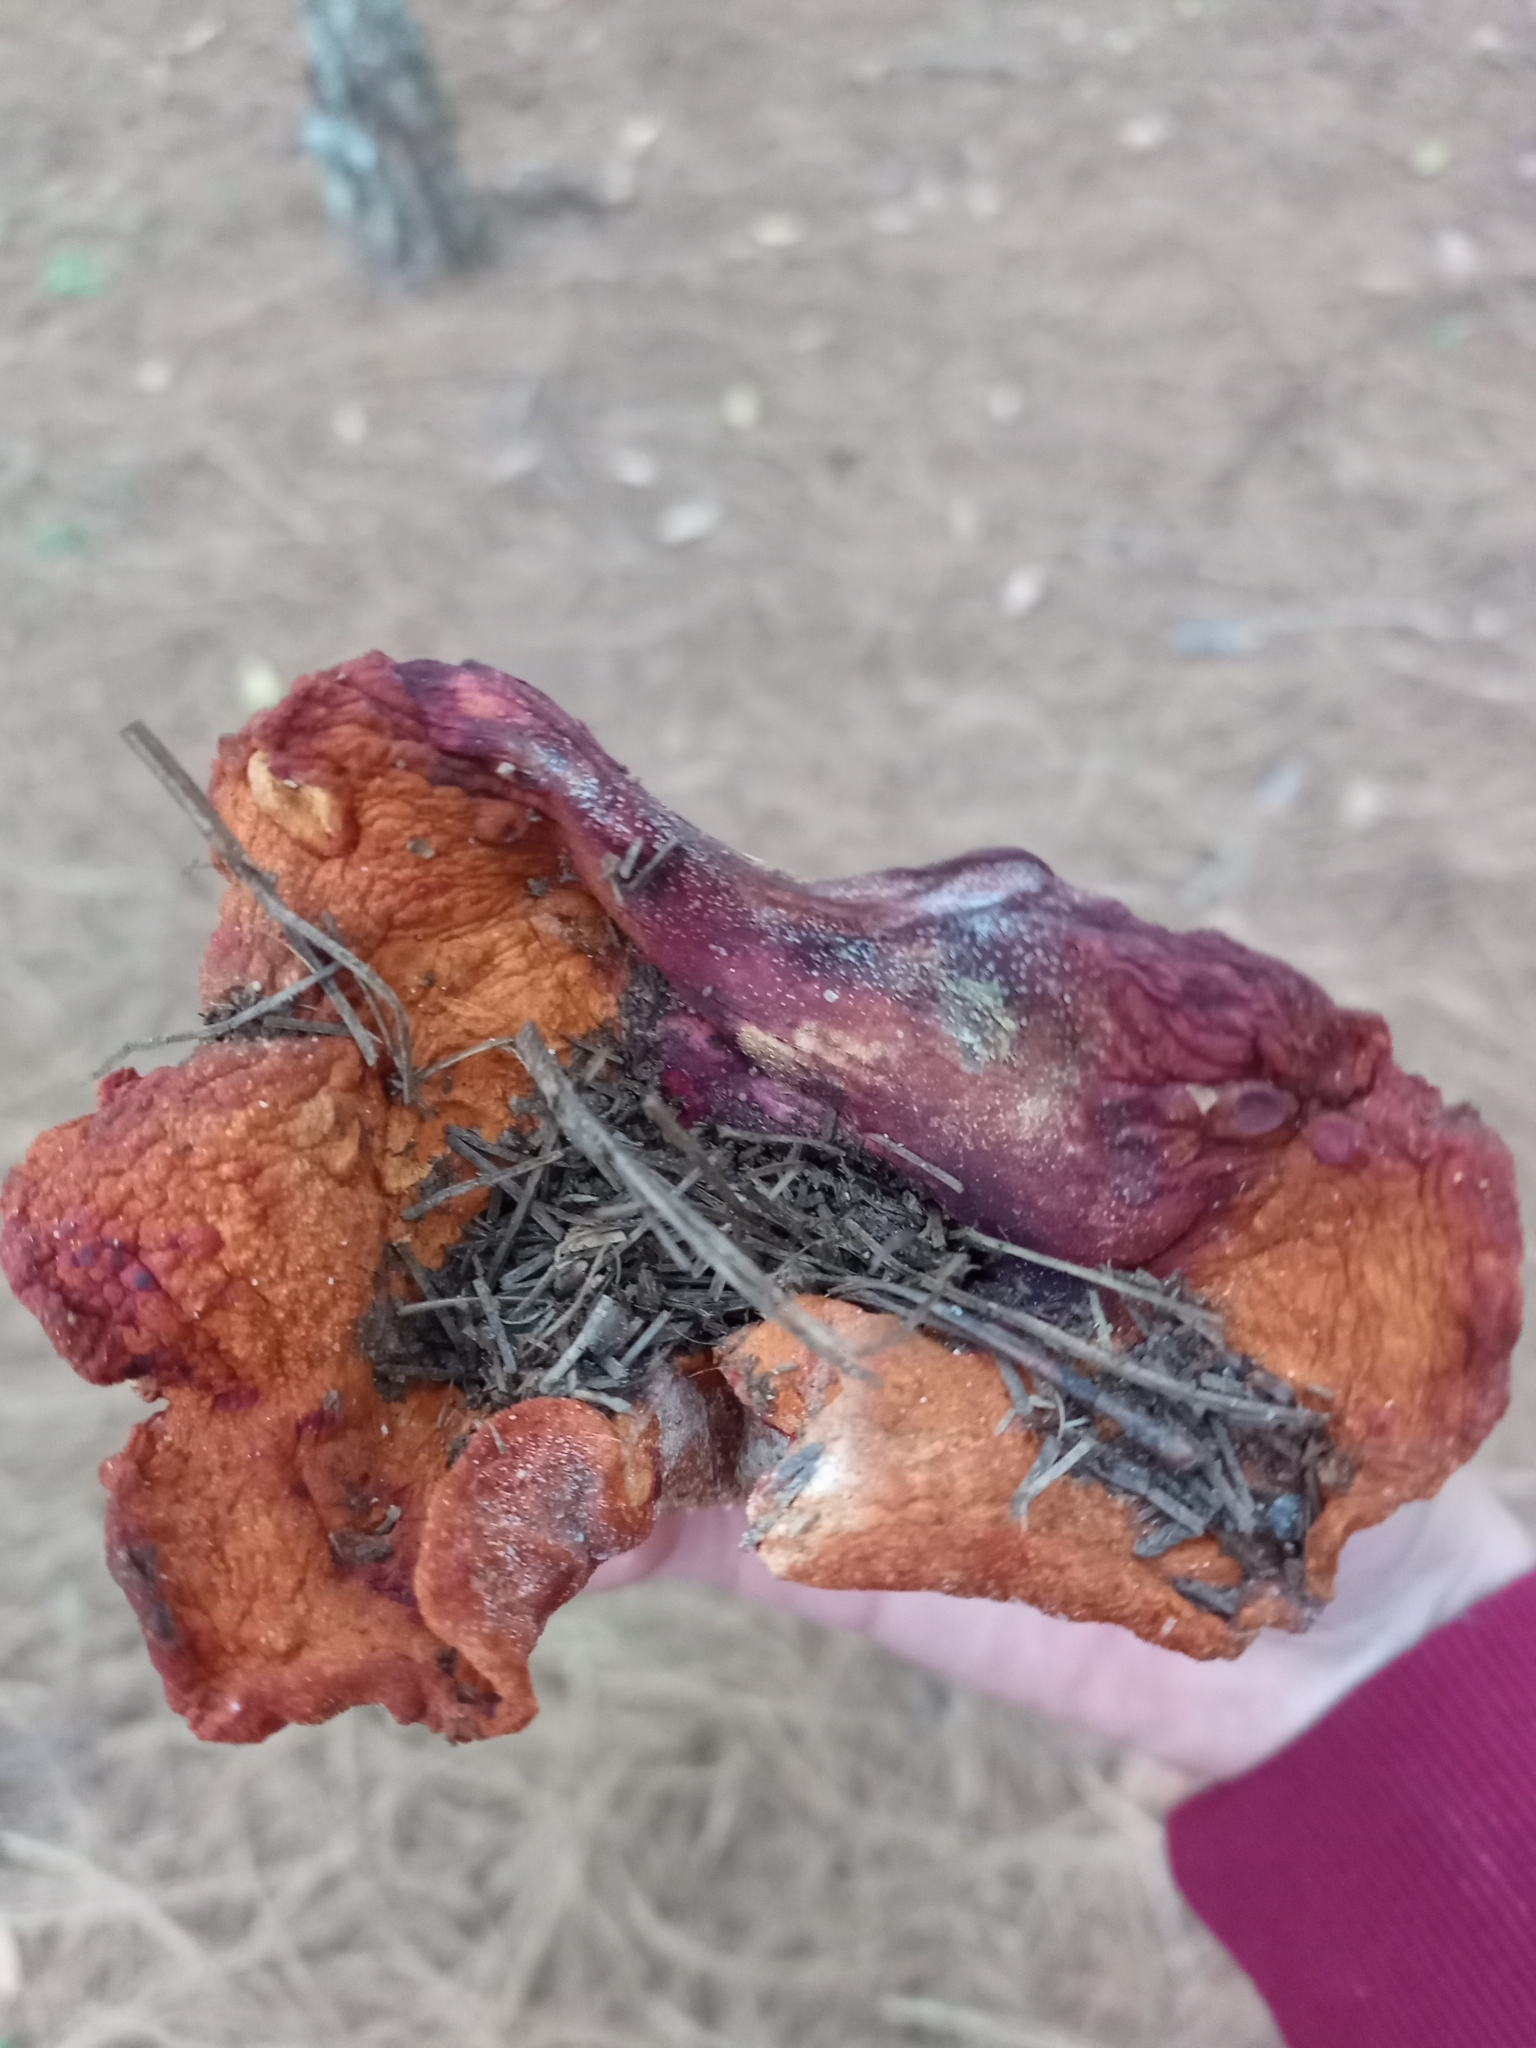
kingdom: Fungi
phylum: Ascomycota
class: Sordariomycetes
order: Hypocreales
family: Hypocreaceae
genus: Hypomyces
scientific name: Hypomyces lactifluorum
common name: Lobster mushroom
